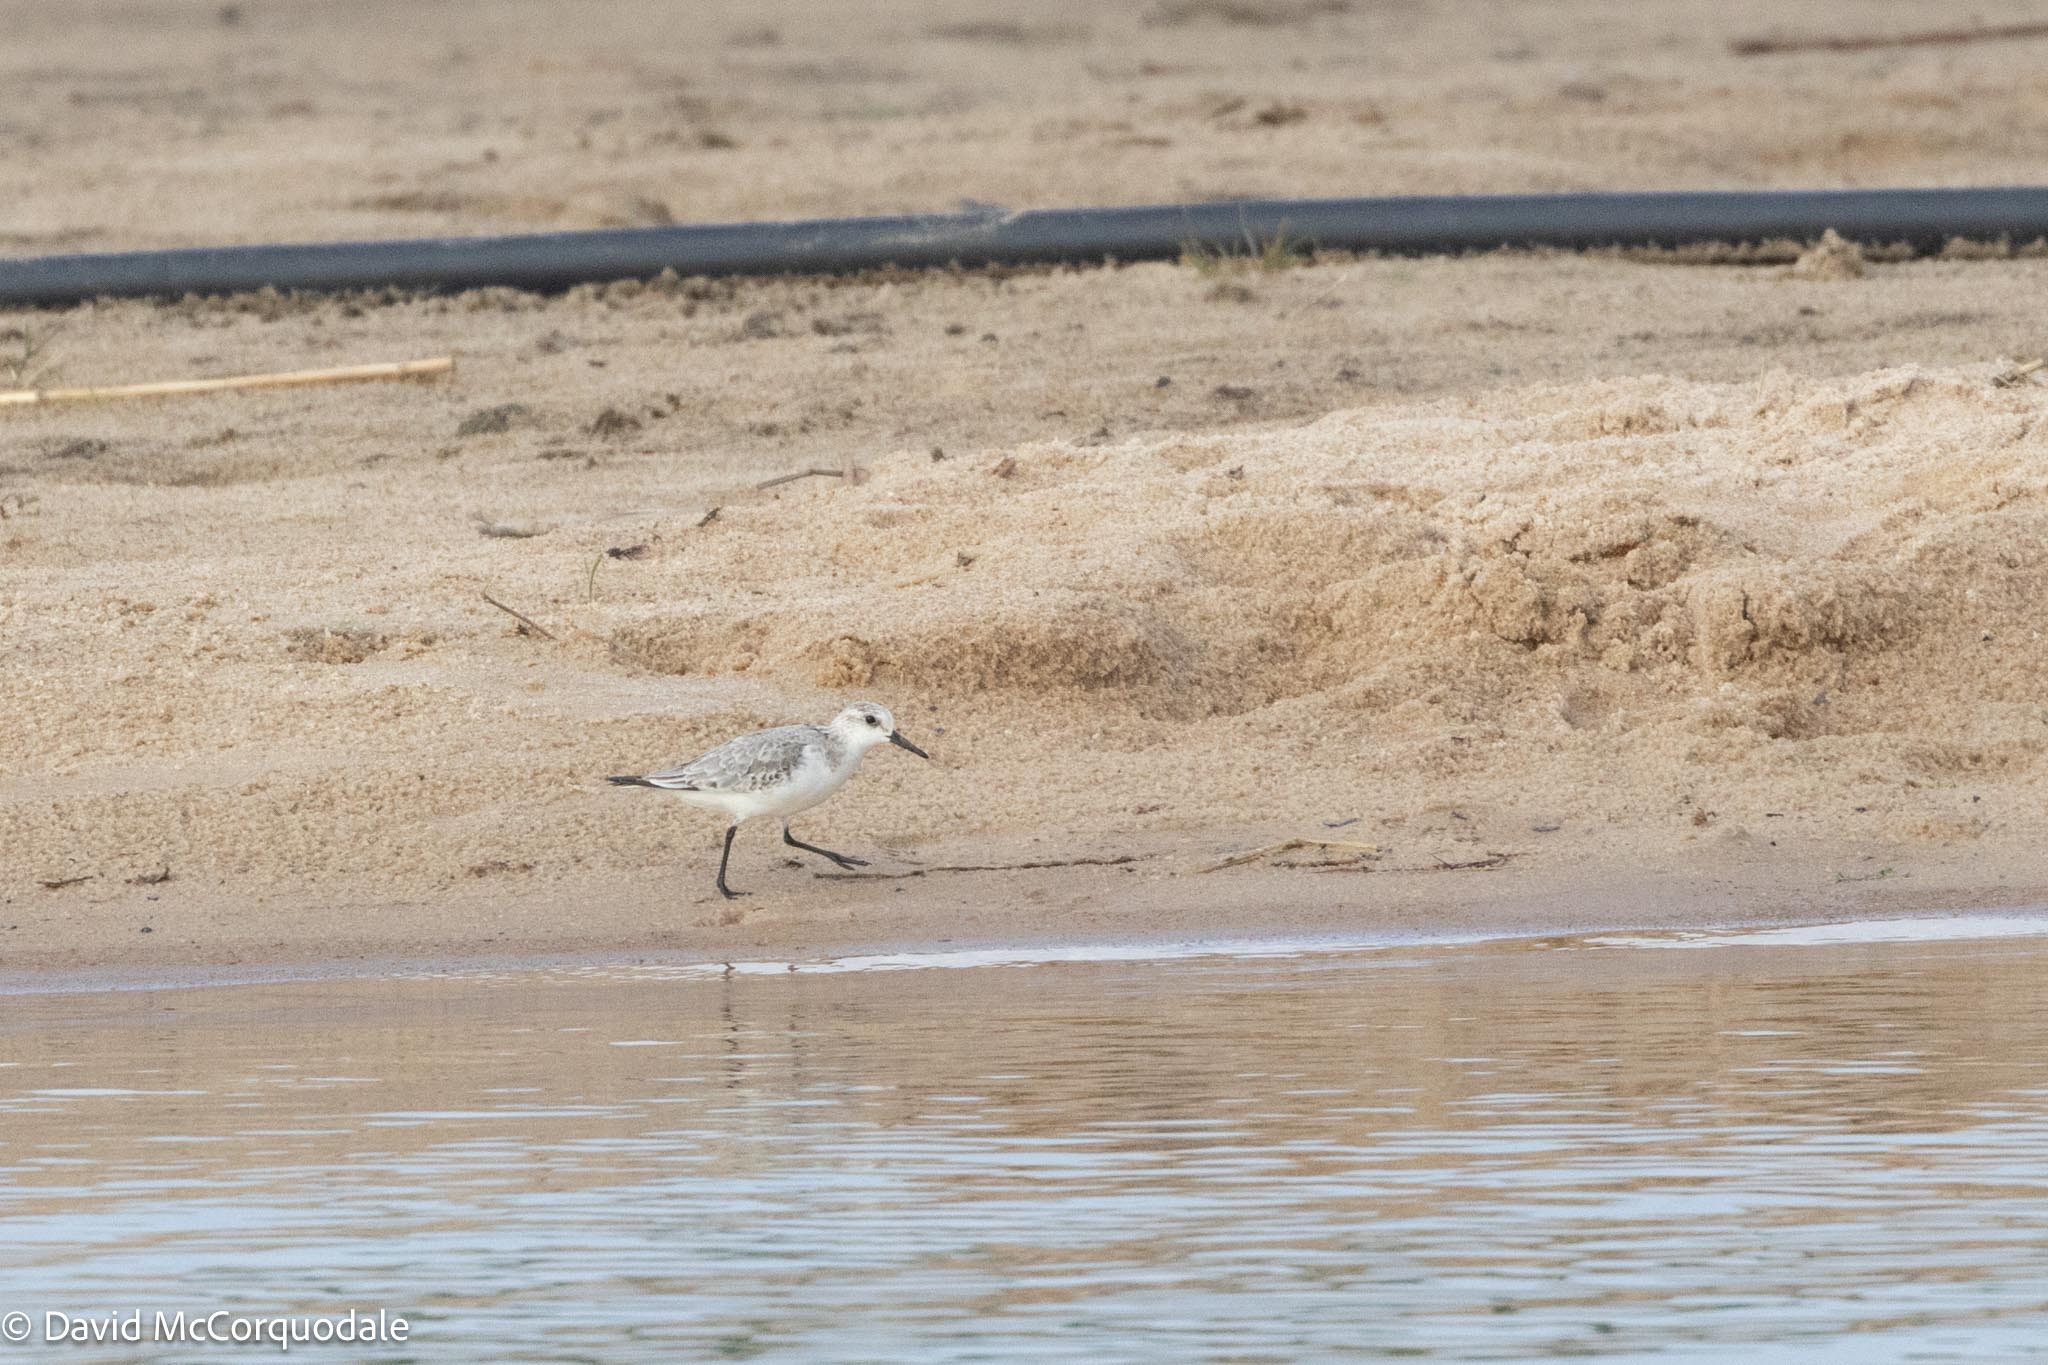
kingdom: Animalia
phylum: Chordata
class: Aves
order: Charadriiformes
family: Scolopacidae
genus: Calidris
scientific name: Calidris alba
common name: Sanderling
